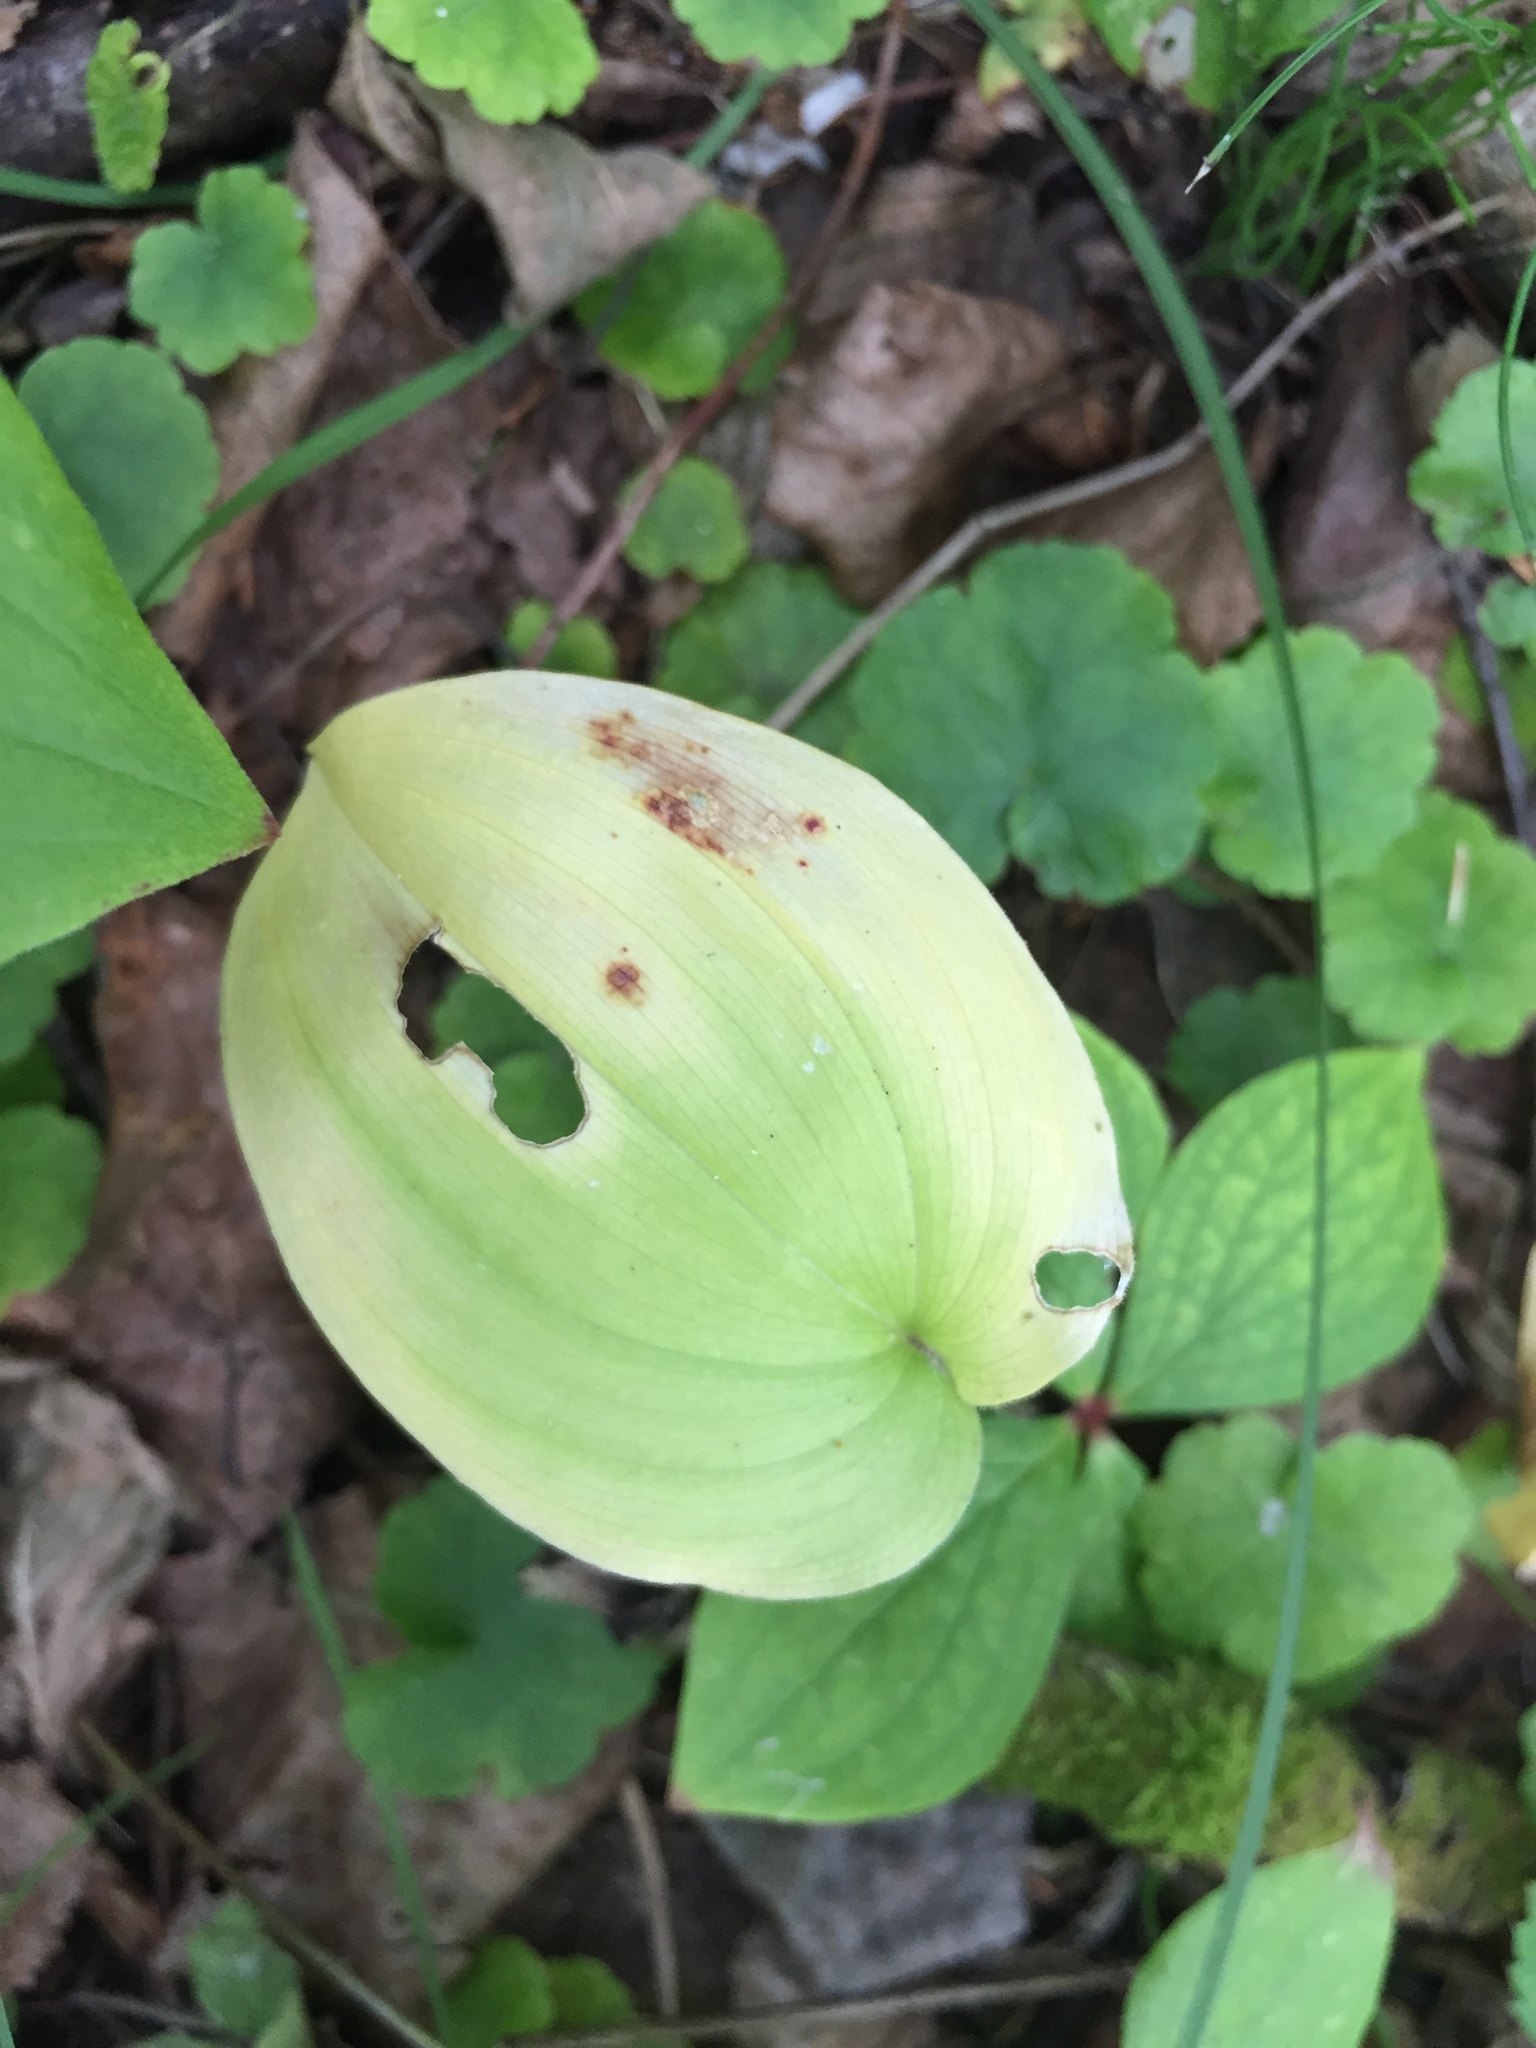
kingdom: Plantae
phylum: Tracheophyta
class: Liliopsida
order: Asparagales
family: Asparagaceae
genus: Maianthemum
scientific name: Maianthemum canadense
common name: False lily-of-the-valley
